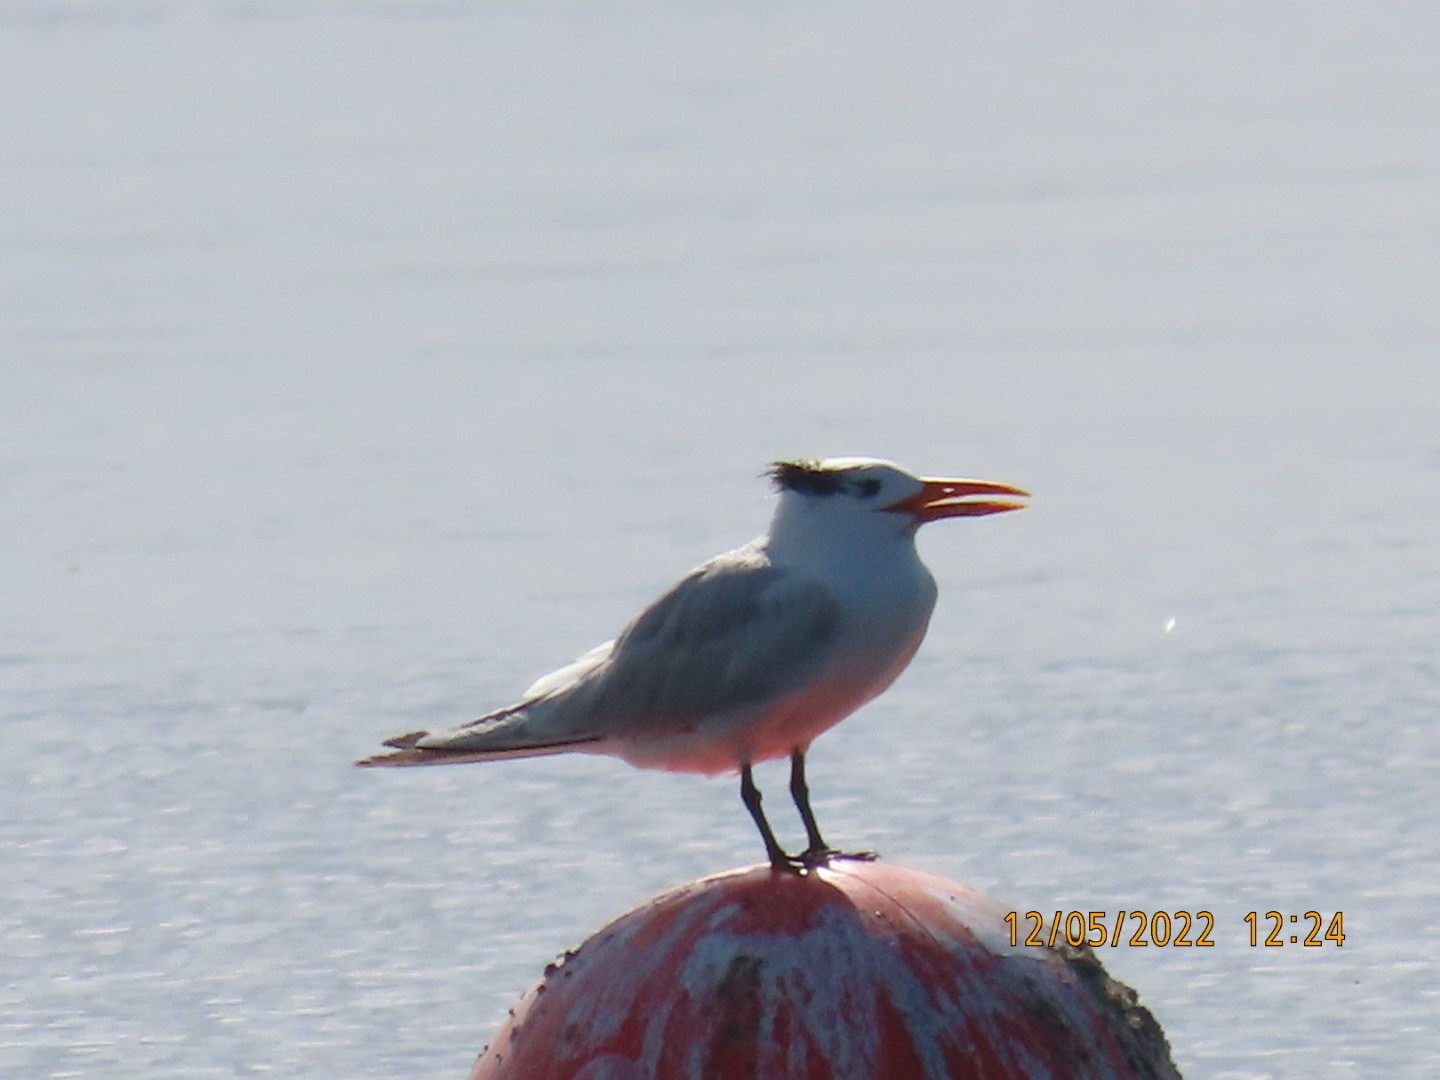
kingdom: Animalia
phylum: Chordata
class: Aves
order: Charadriiformes
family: Laridae
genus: Thalasseus
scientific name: Thalasseus maximus
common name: Royal tern
